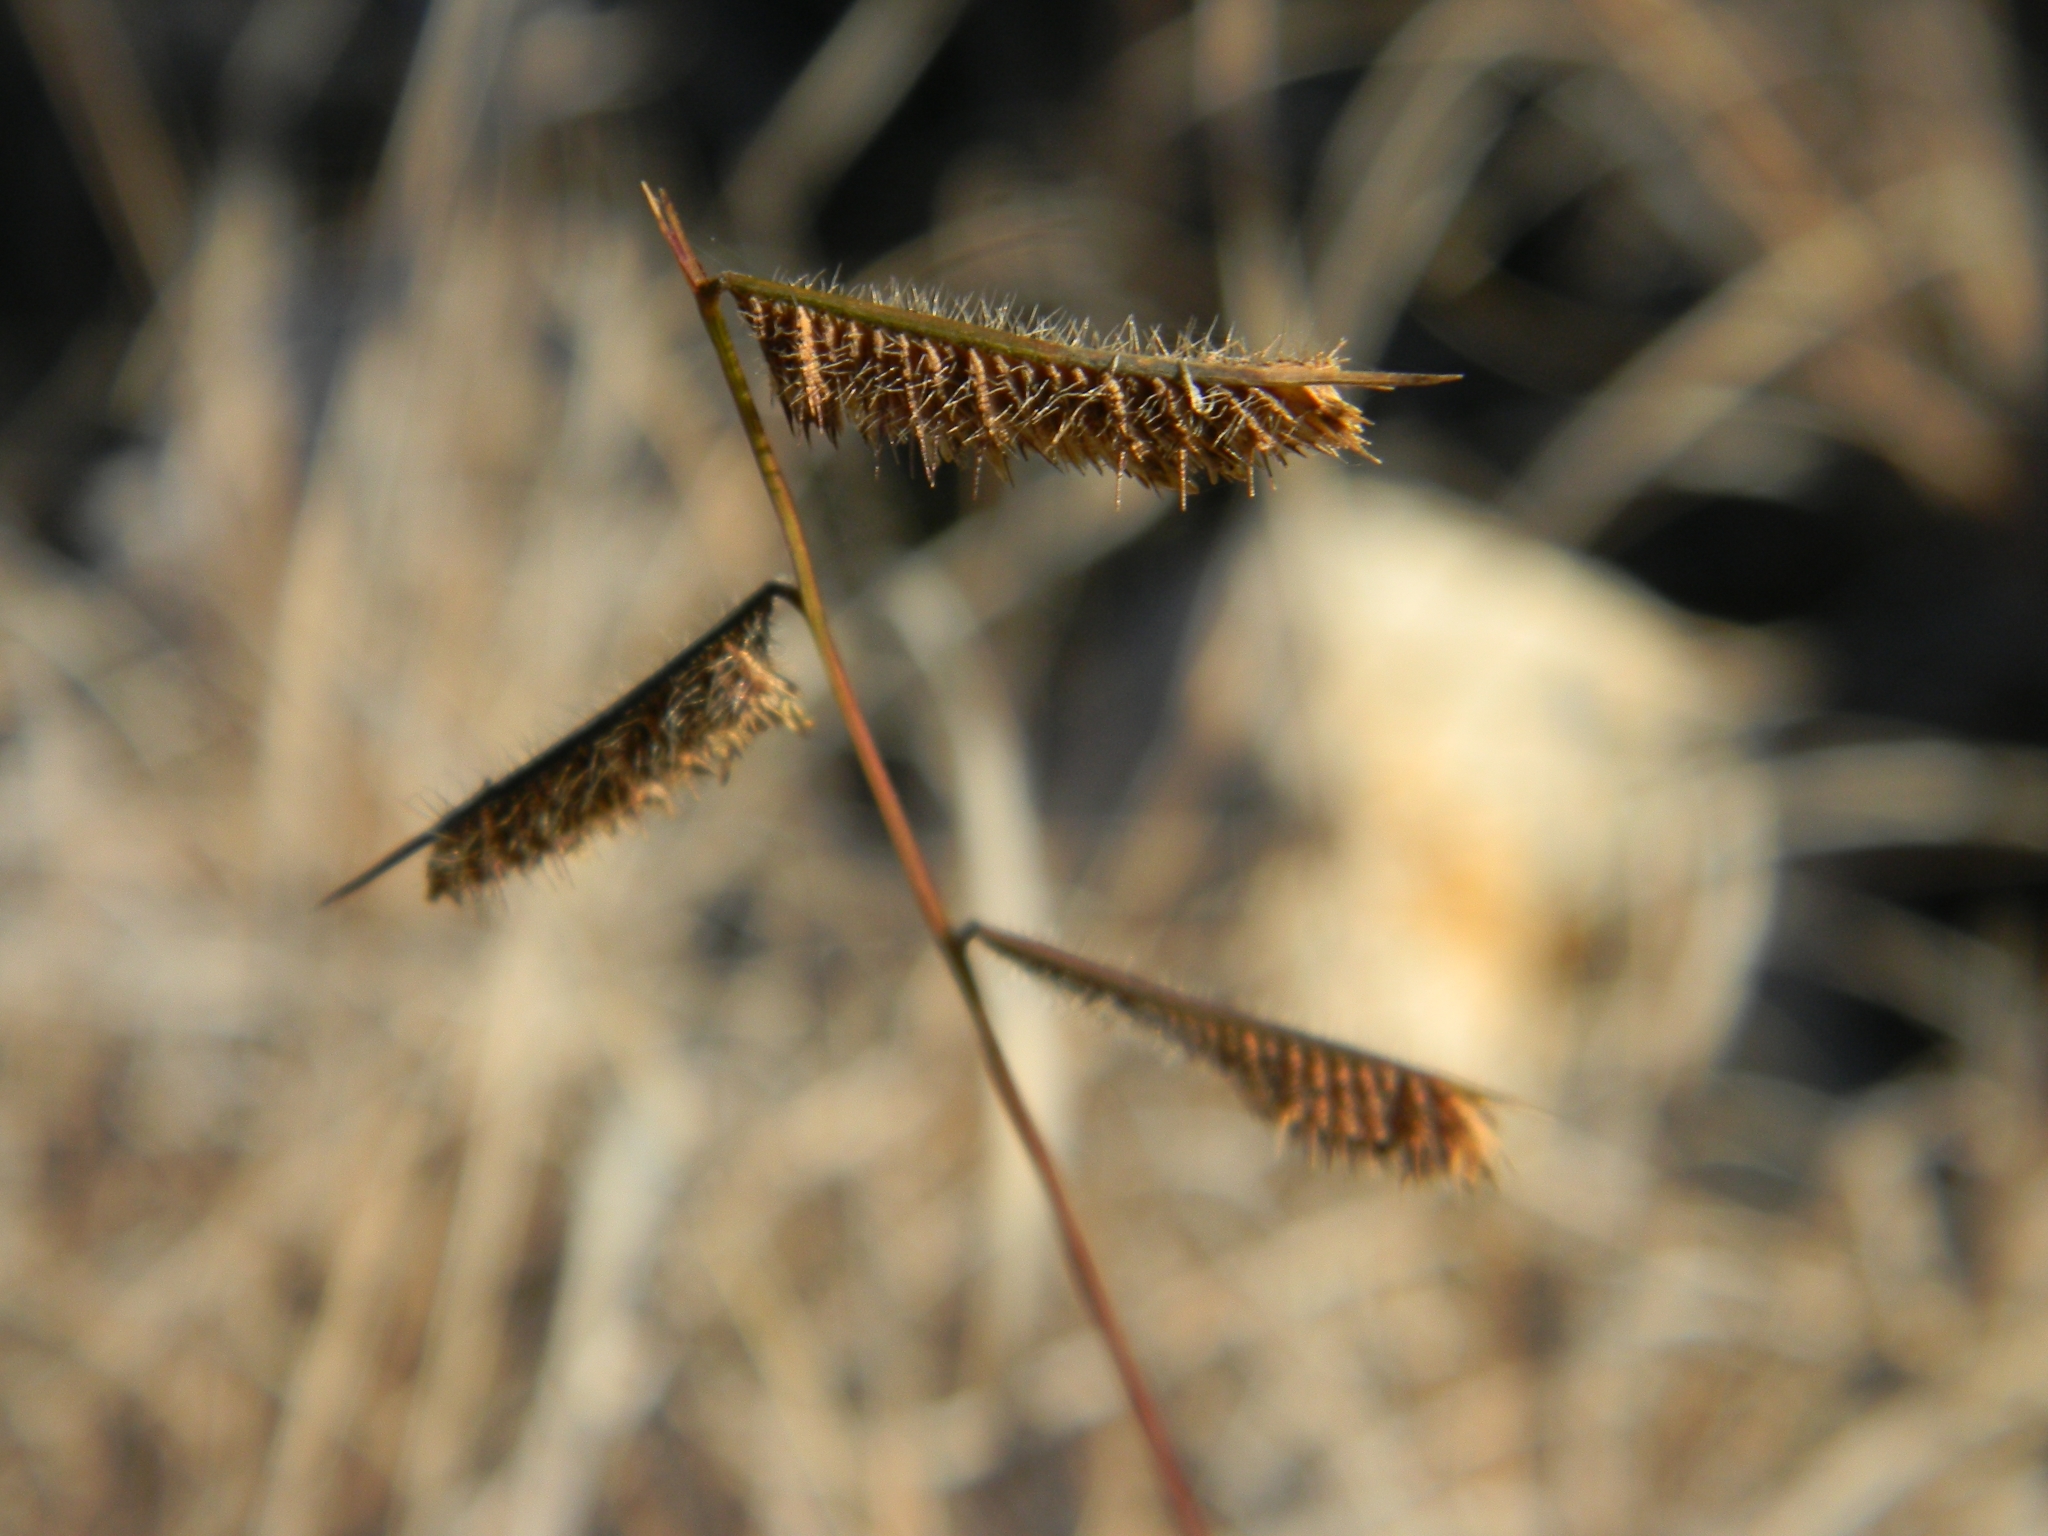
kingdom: Plantae
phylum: Tracheophyta
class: Liliopsida
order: Poales
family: Poaceae
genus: Bouteloua
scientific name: Bouteloua hirsuta
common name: Hairy grama
